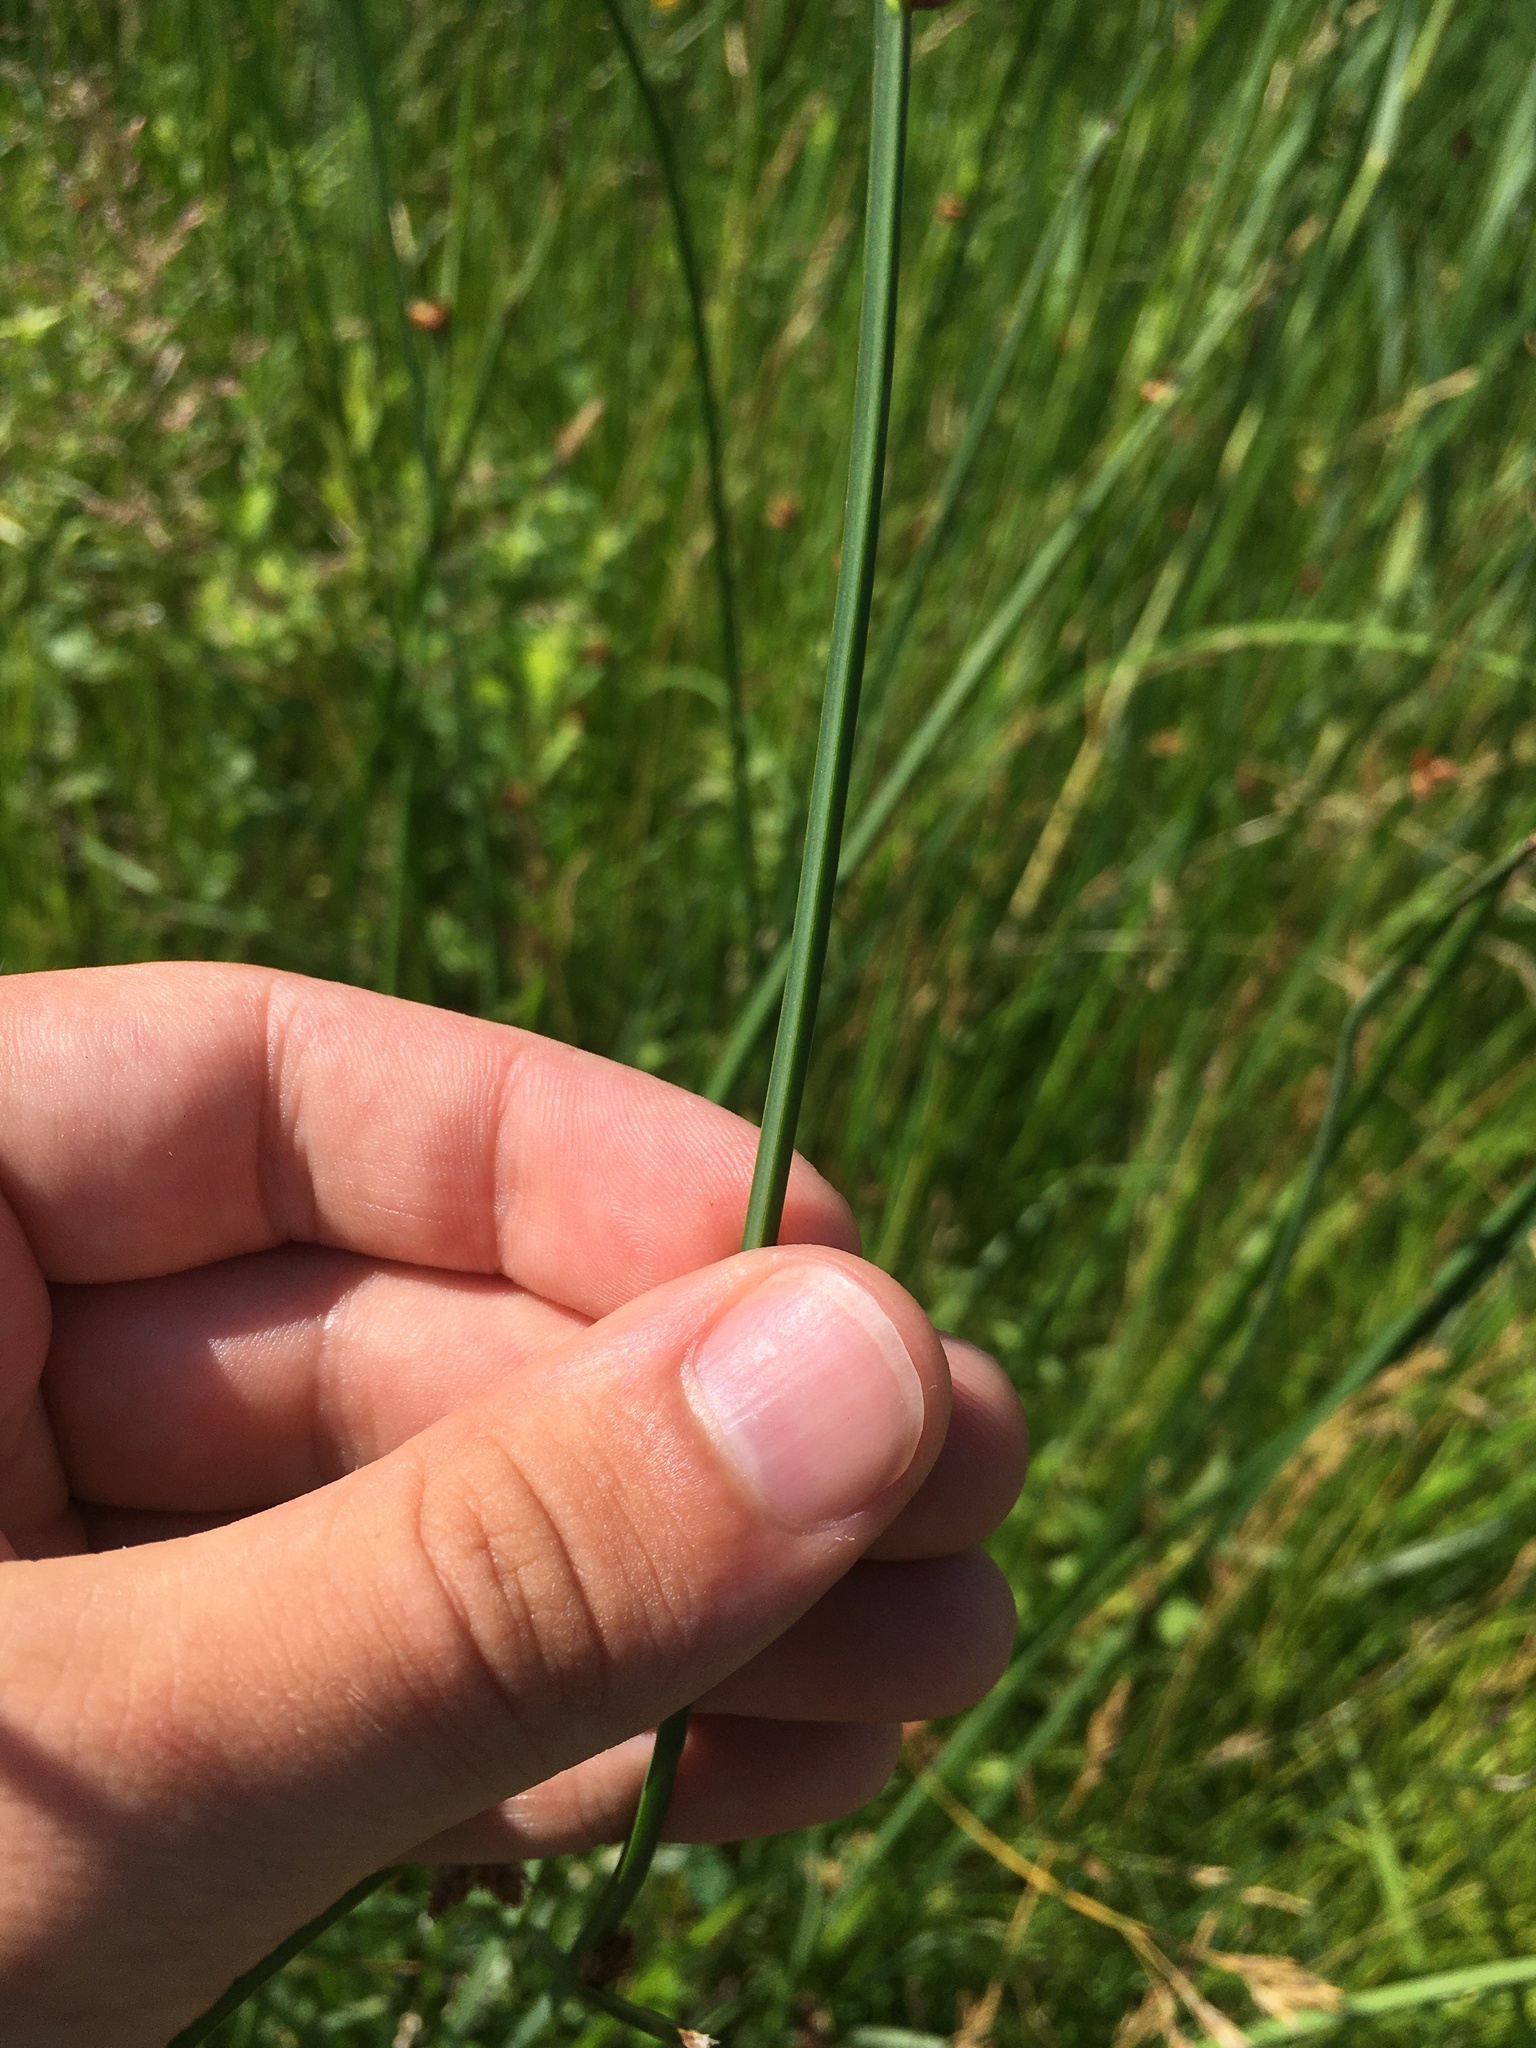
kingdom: Plantae
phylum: Tracheophyta
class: Liliopsida
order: Poales
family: Cyperaceae
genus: Schoenoplectus
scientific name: Schoenoplectus pungens
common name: Sharp club-rush
